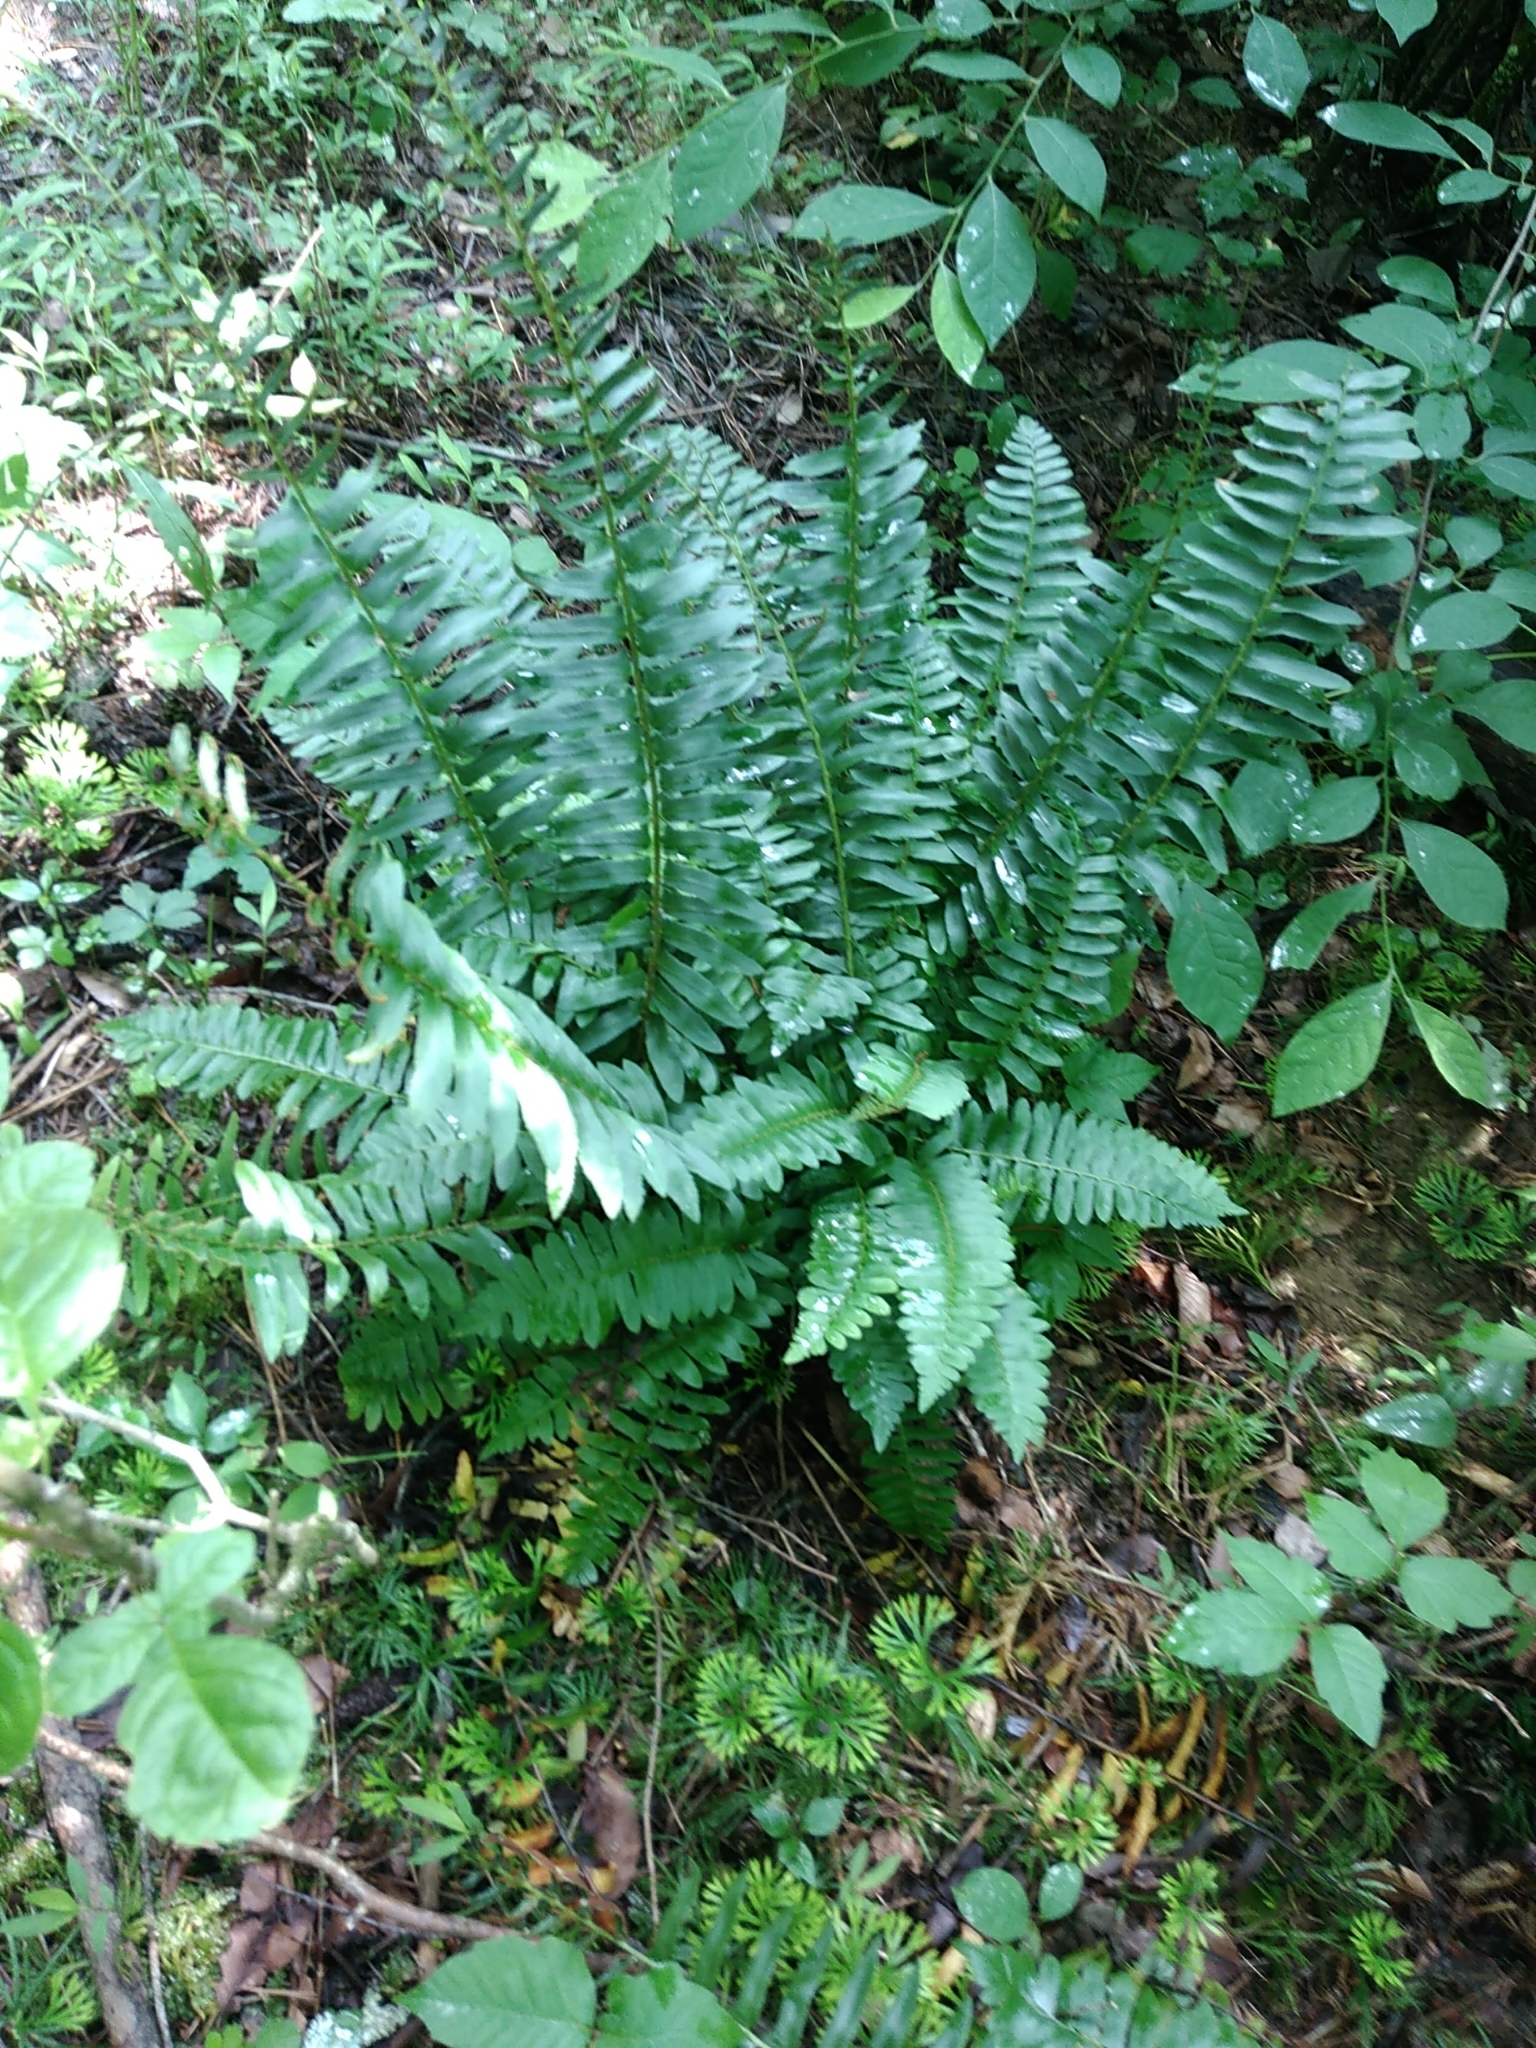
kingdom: Plantae
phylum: Tracheophyta
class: Polypodiopsida
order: Polypodiales
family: Dryopteridaceae
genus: Polystichum
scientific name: Polystichum acrostichoides
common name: Christmas fern
